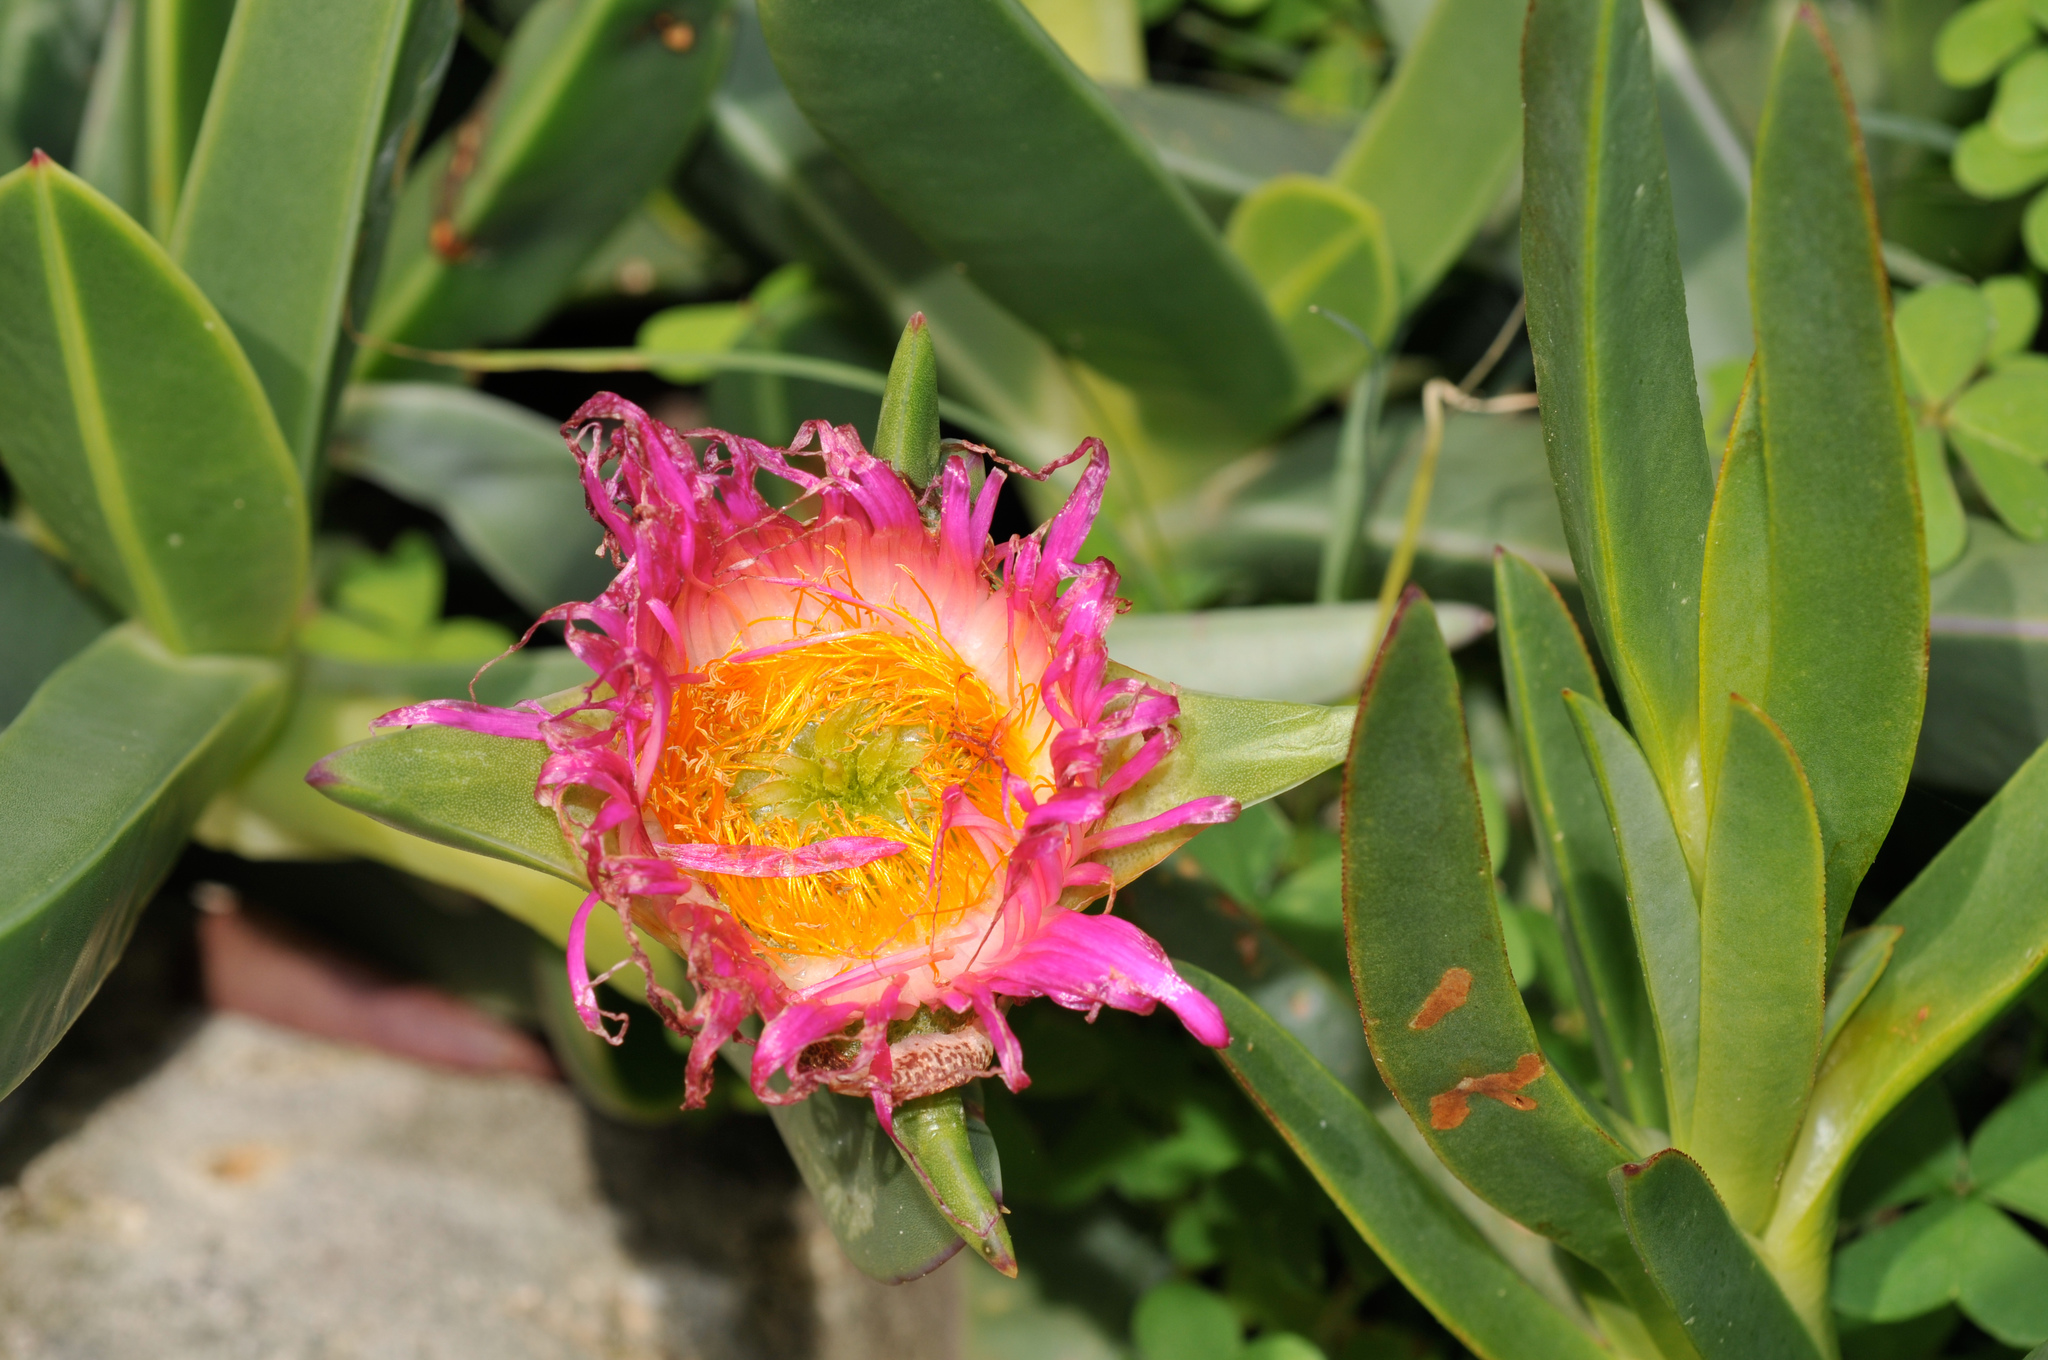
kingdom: Plantae
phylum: Tracheophyta
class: Magnoliopsida
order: Caryophyllales
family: Aizoaceae
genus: Carpobrotus
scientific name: Carpobrotus quadrifidus
